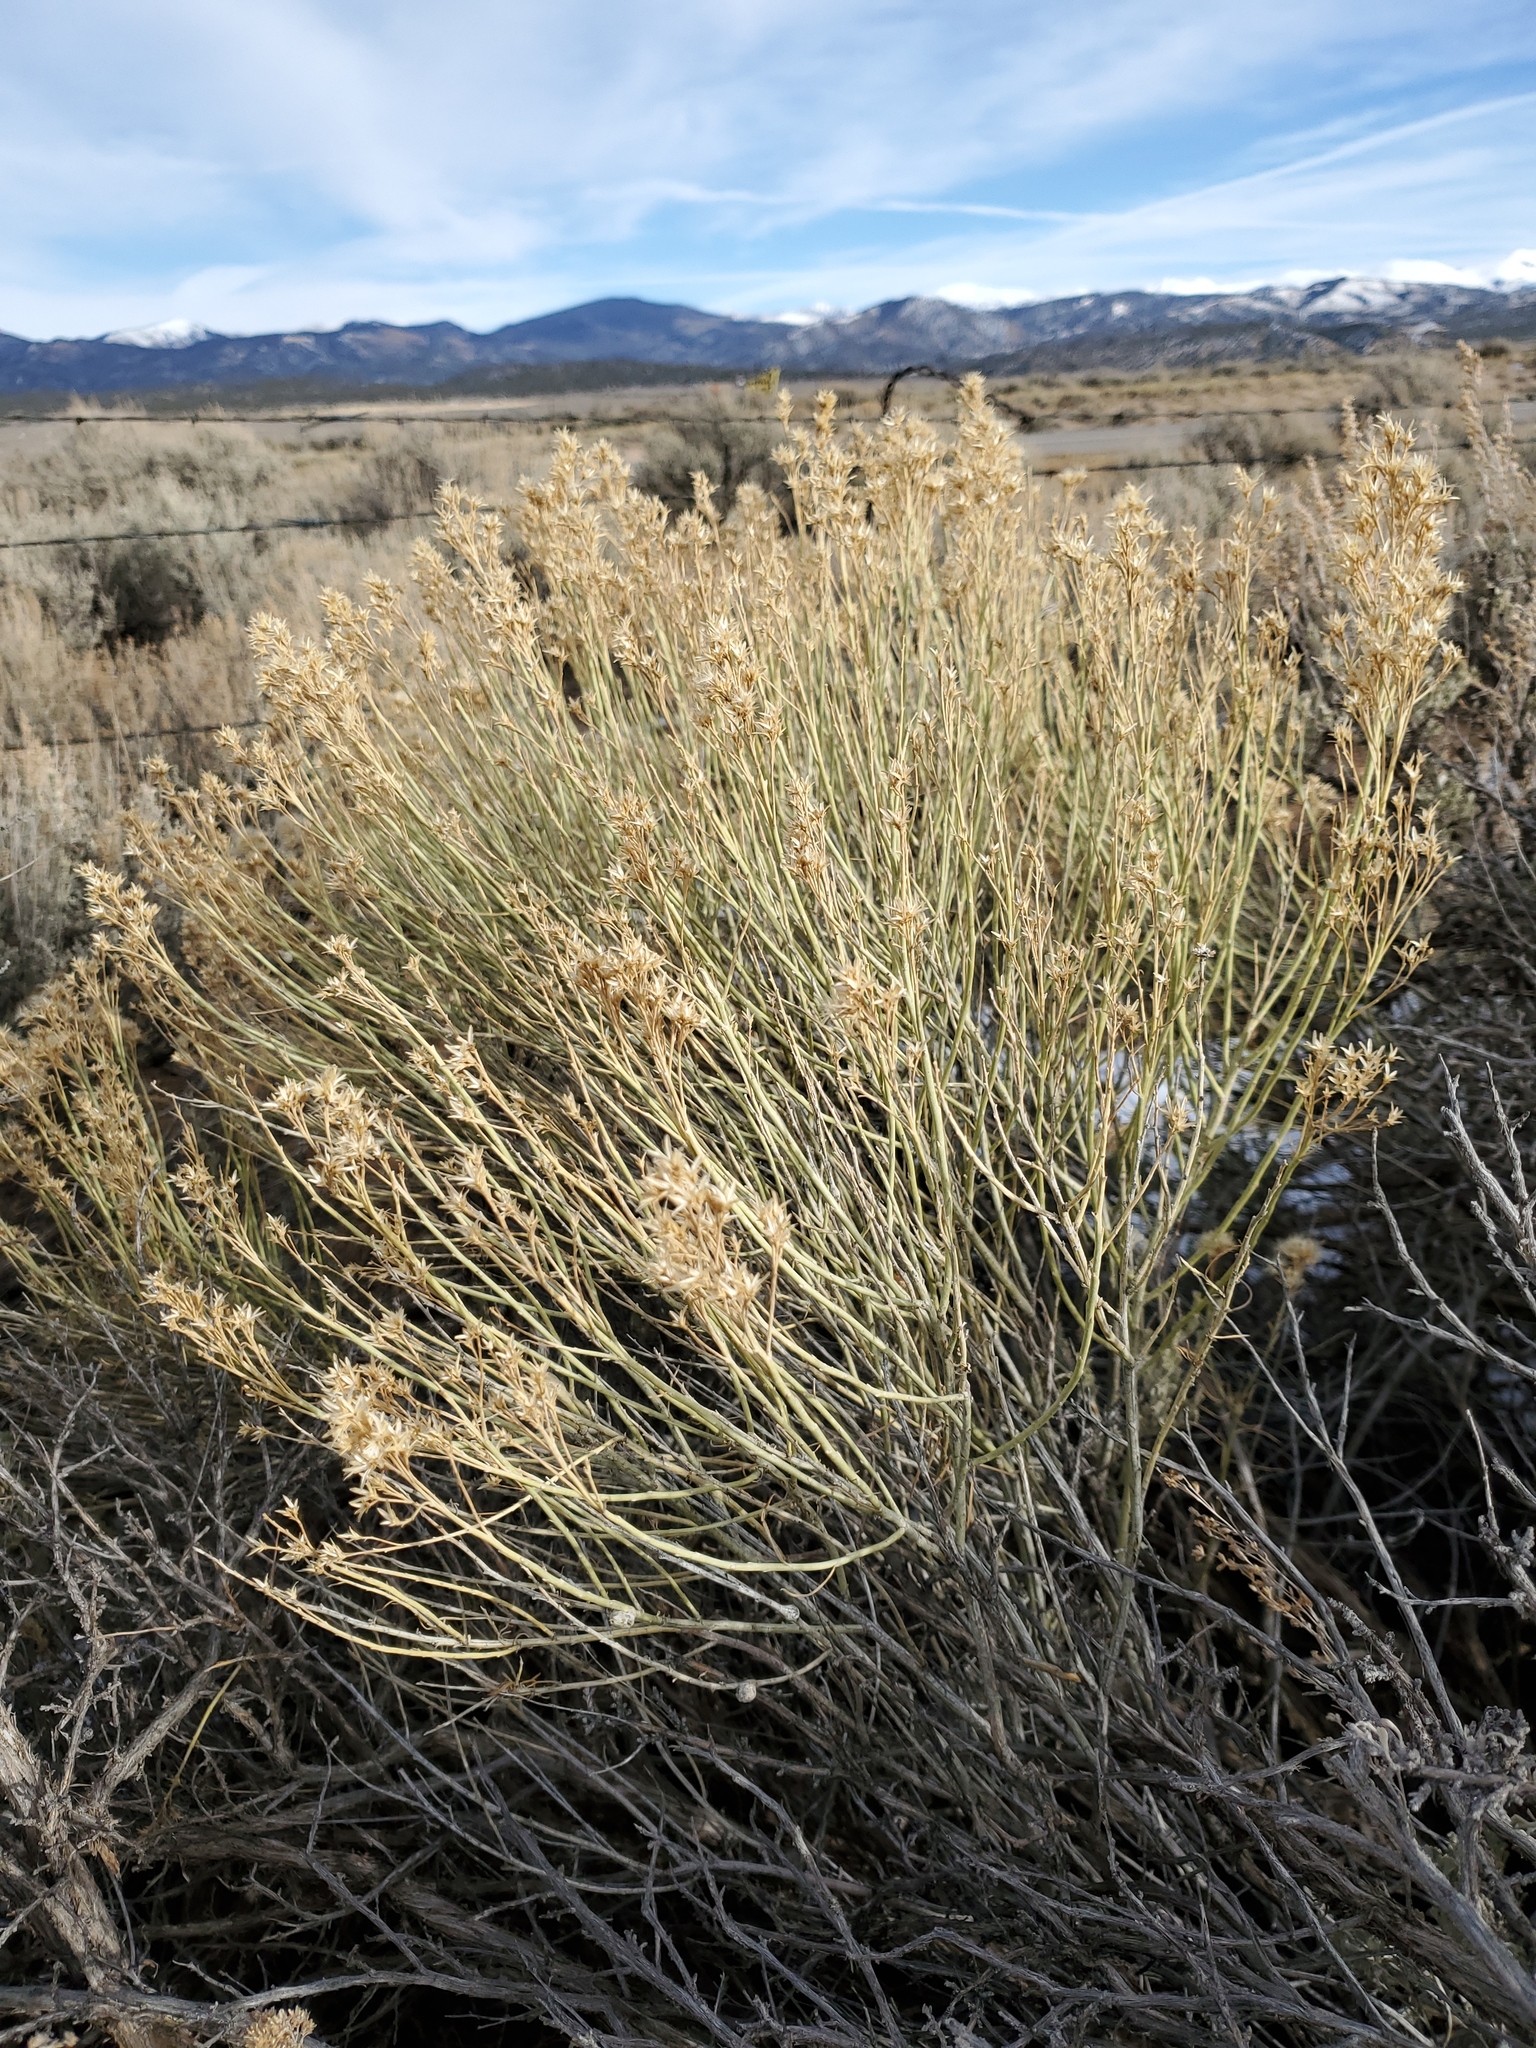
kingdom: Plantae
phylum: Tracheophyta
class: Magnoliopsida
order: Asterales
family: Asteraceae
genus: Ericameria
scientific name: Ericameria nauseosa
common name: Rubber rabbitbrush
